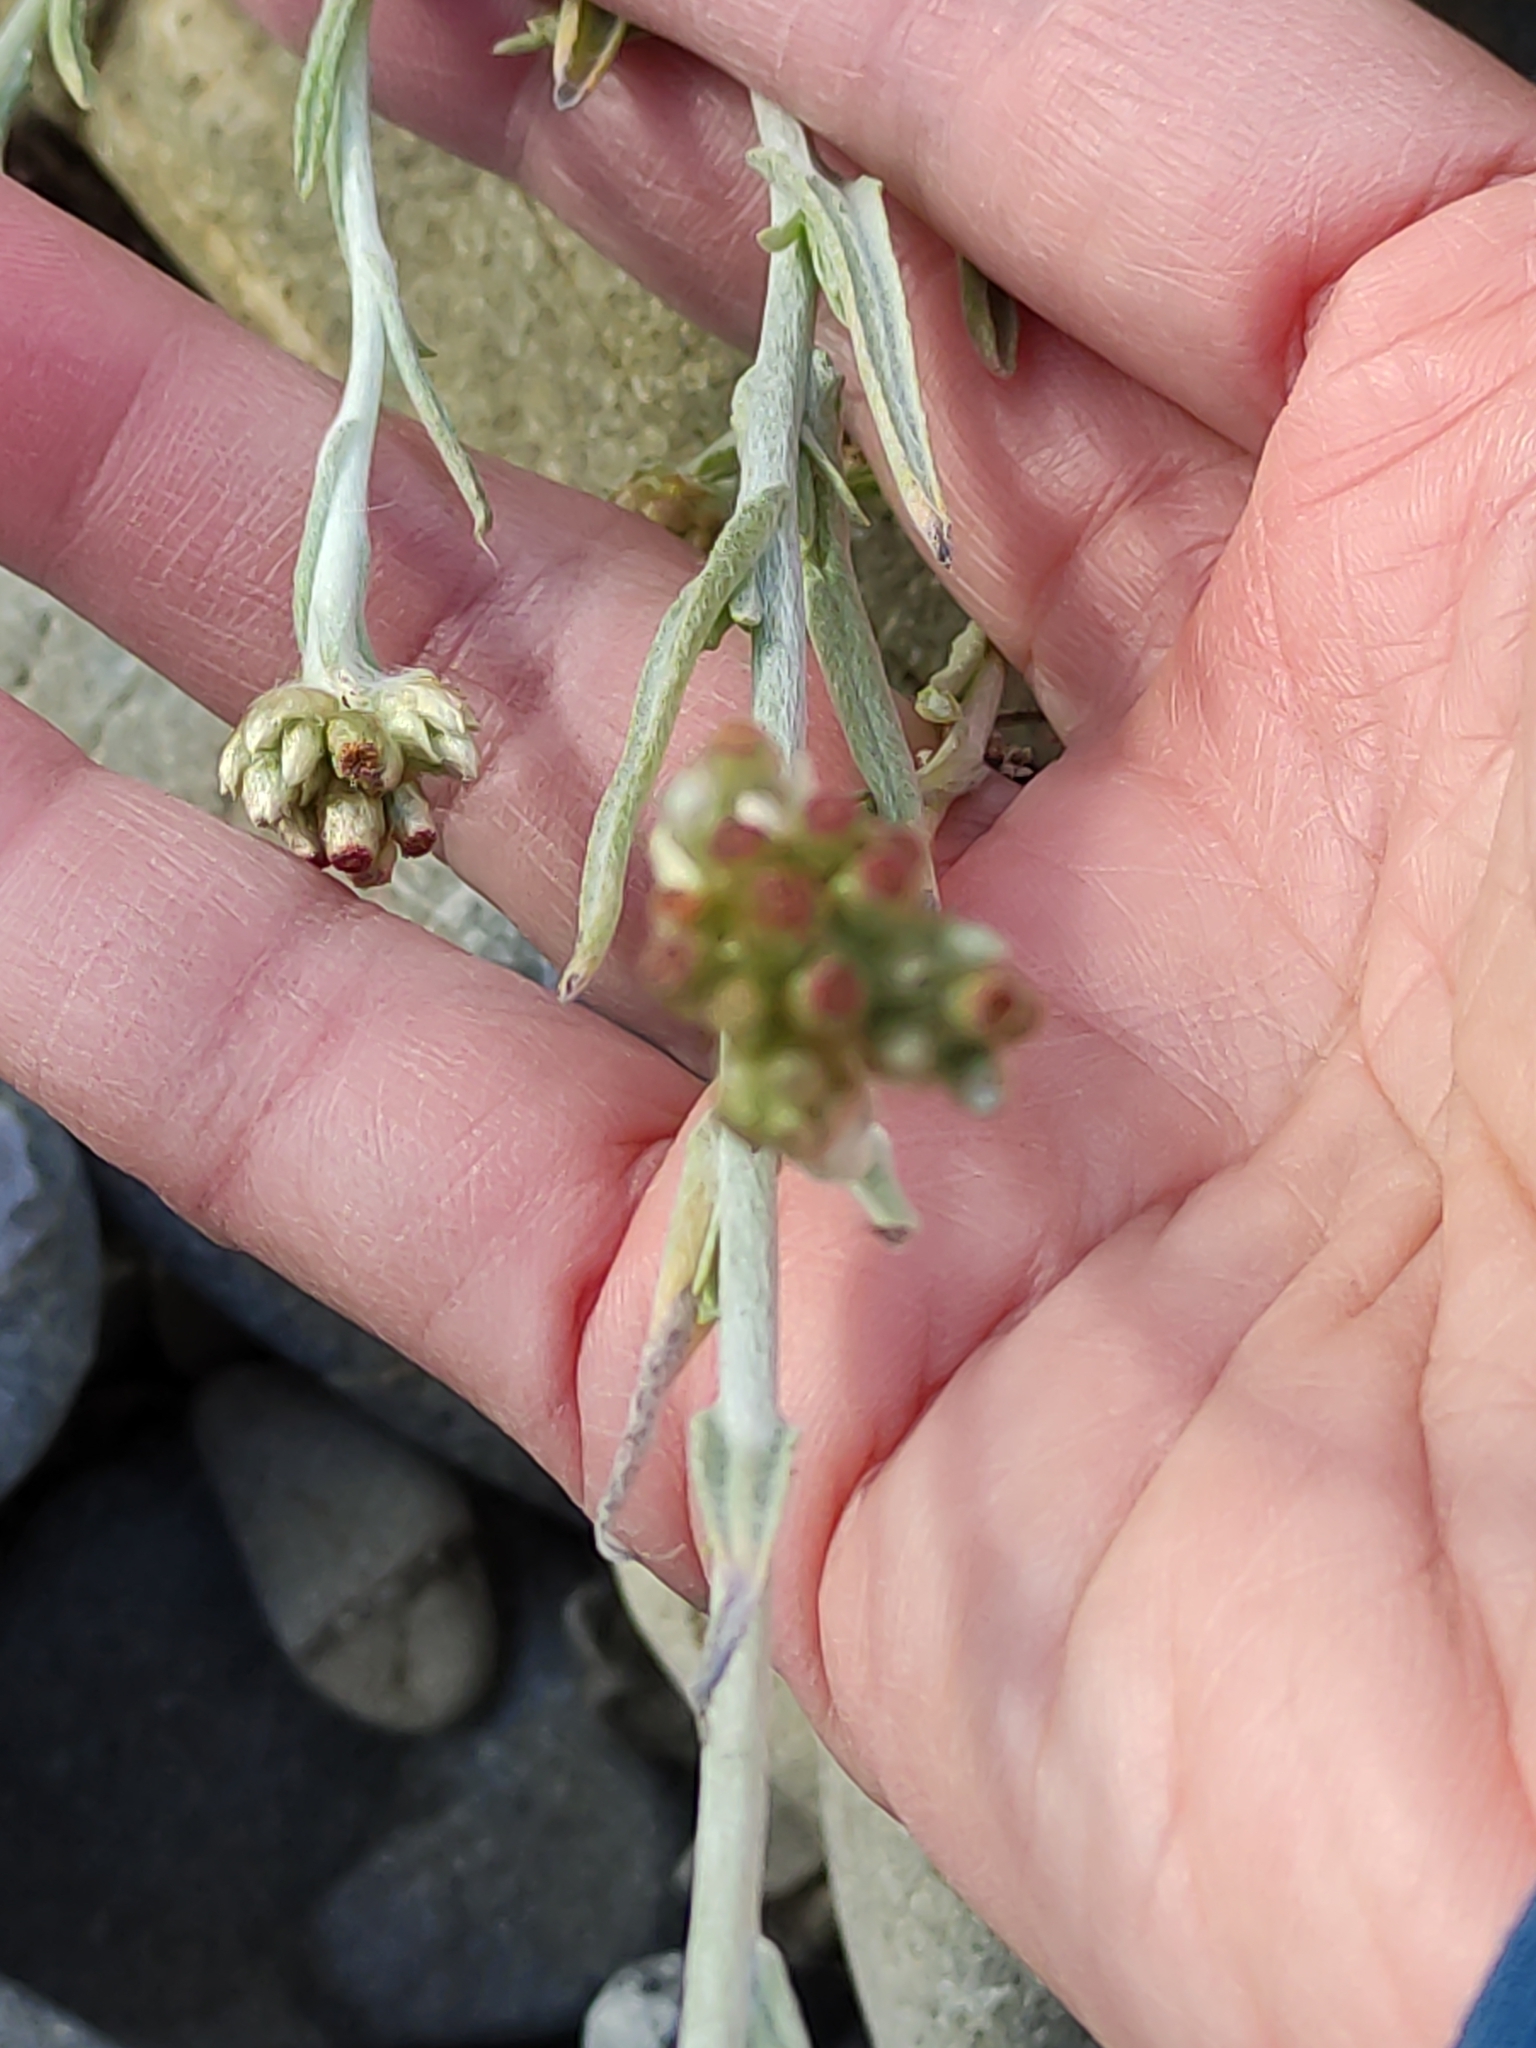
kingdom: Plantae
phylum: Tracheophyta
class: Magnoliopsida
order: Asterales
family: Asteraceae
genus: Helichrysum
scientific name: Helichrysum luteoalbum
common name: Daisy
